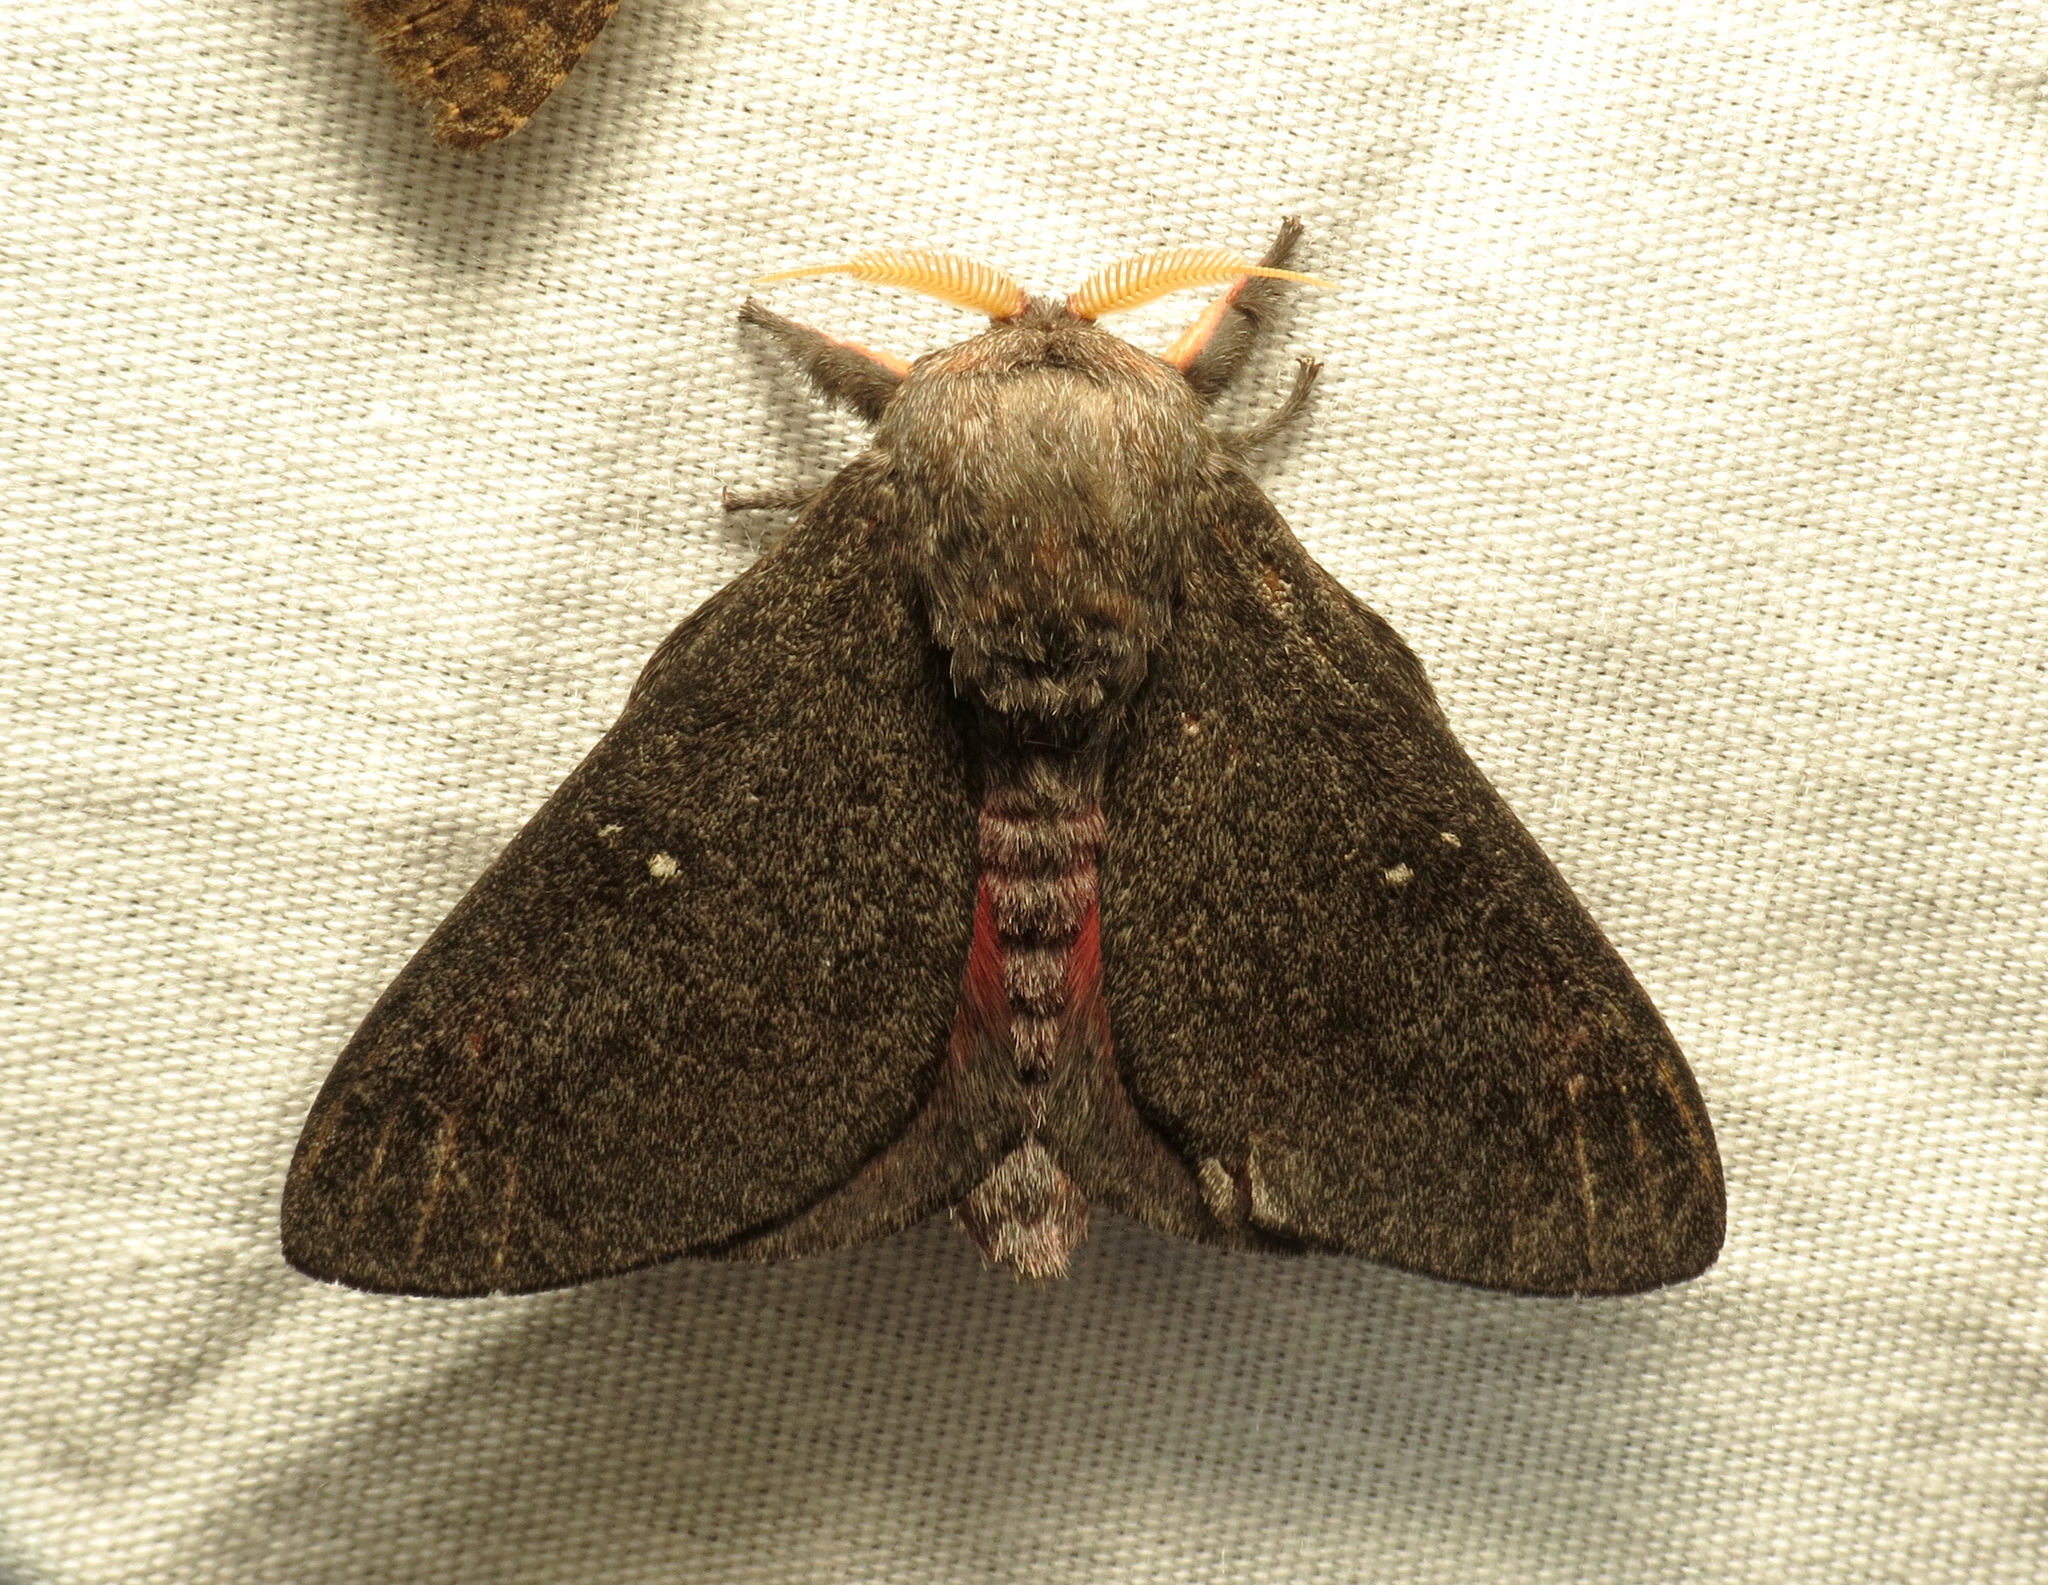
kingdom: Animalia
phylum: Arthropoda
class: Insecta
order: Lepidoptera
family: Saturniidae
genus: Syssphinx
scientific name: Syssphinx hubbardi
